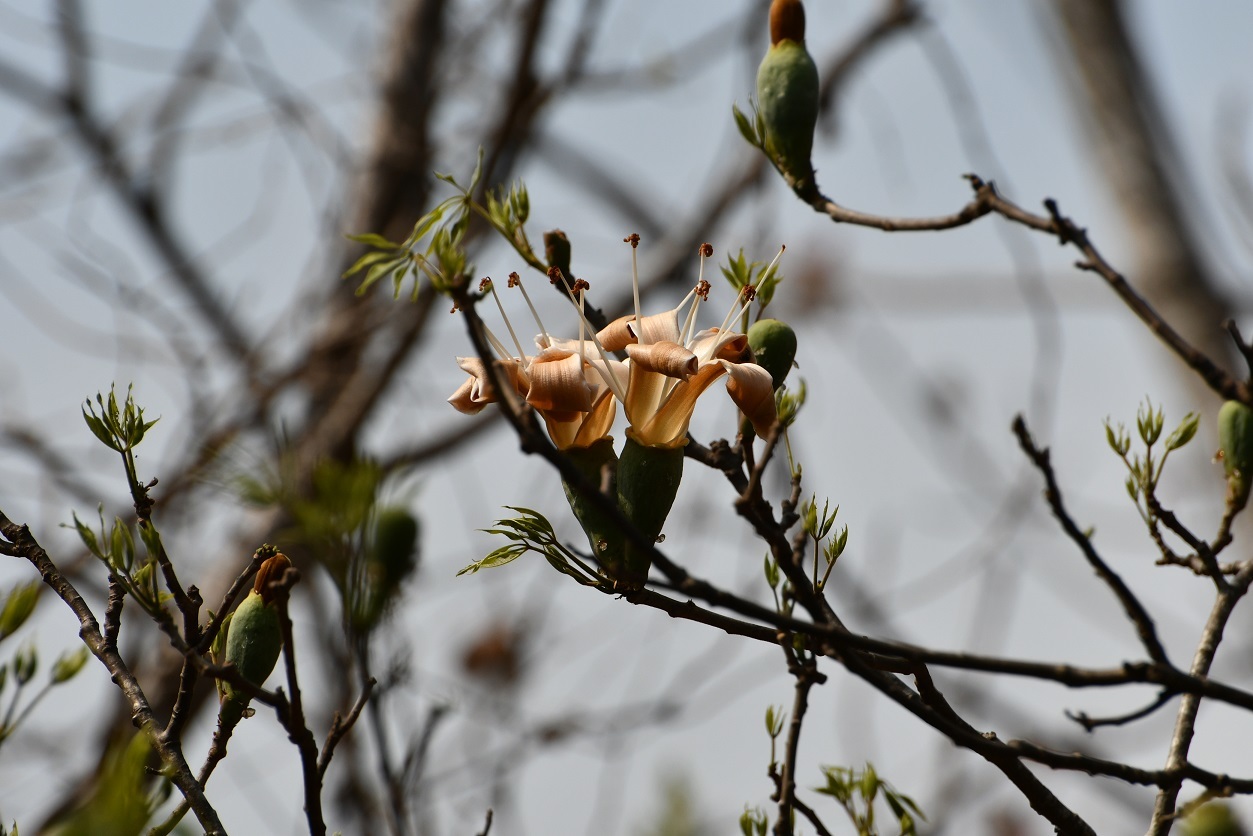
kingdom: Plantae
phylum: Tracheophyta
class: Magnoliopsida
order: Malvales
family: Malvaceae
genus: Ceiba
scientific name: Ceiba aesculifolia
